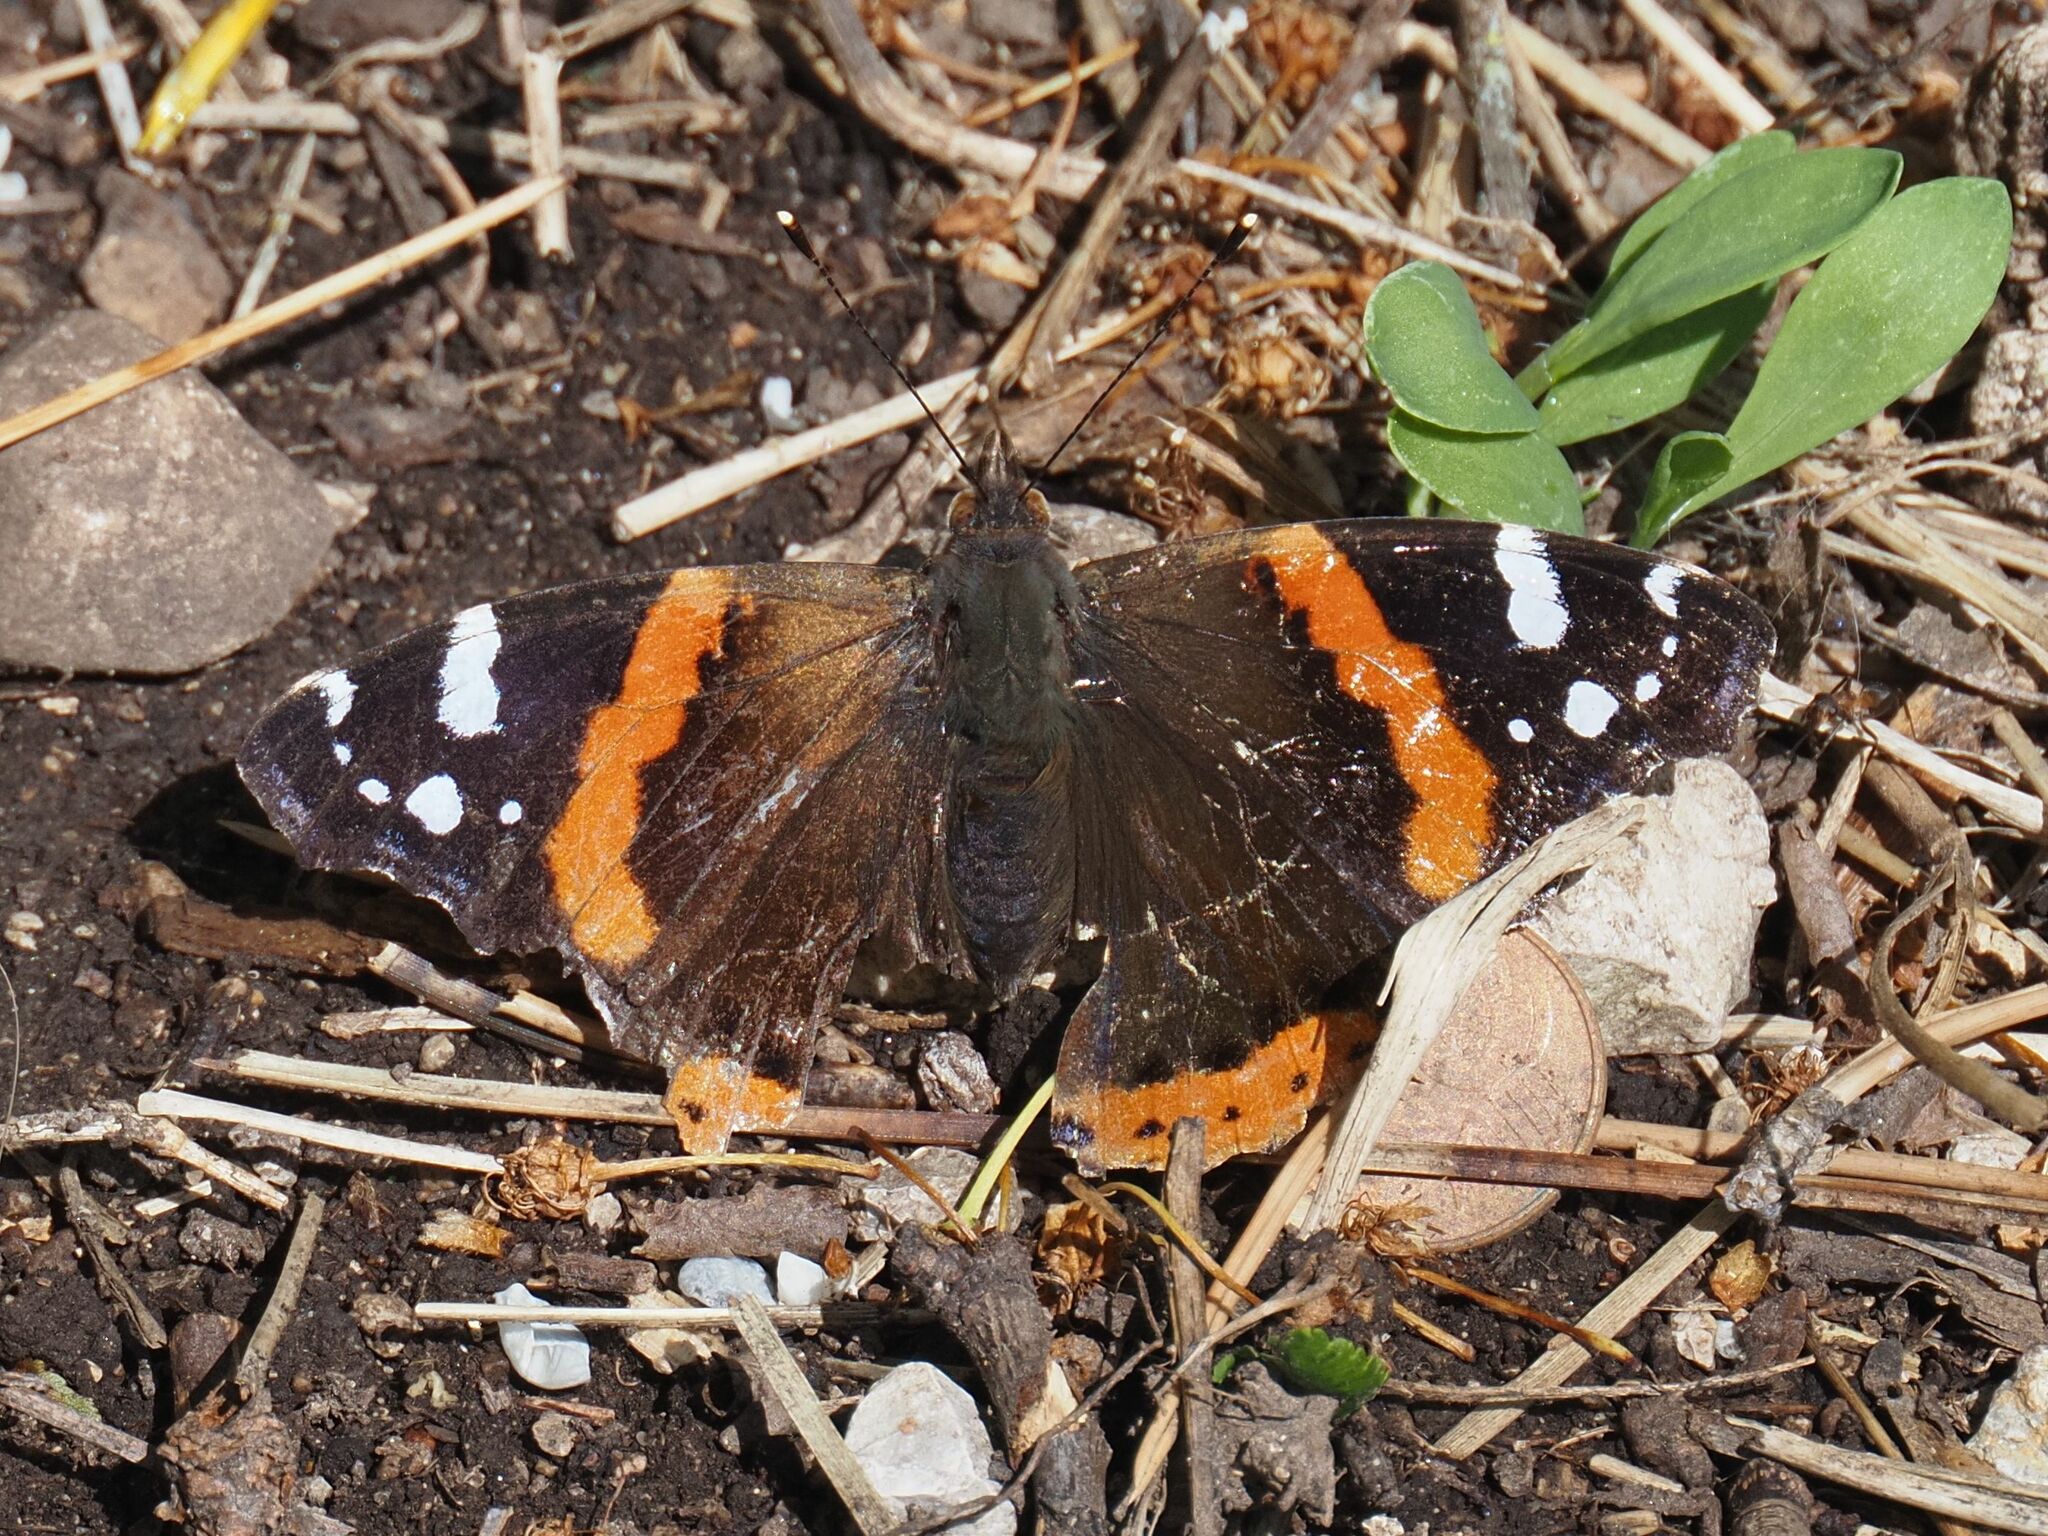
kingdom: Animalia
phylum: Arthropoda
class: Insecta
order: Lepidoptera
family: Nymphalidae
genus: Vanessa
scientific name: Vanessa atalanta
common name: Red admiral
